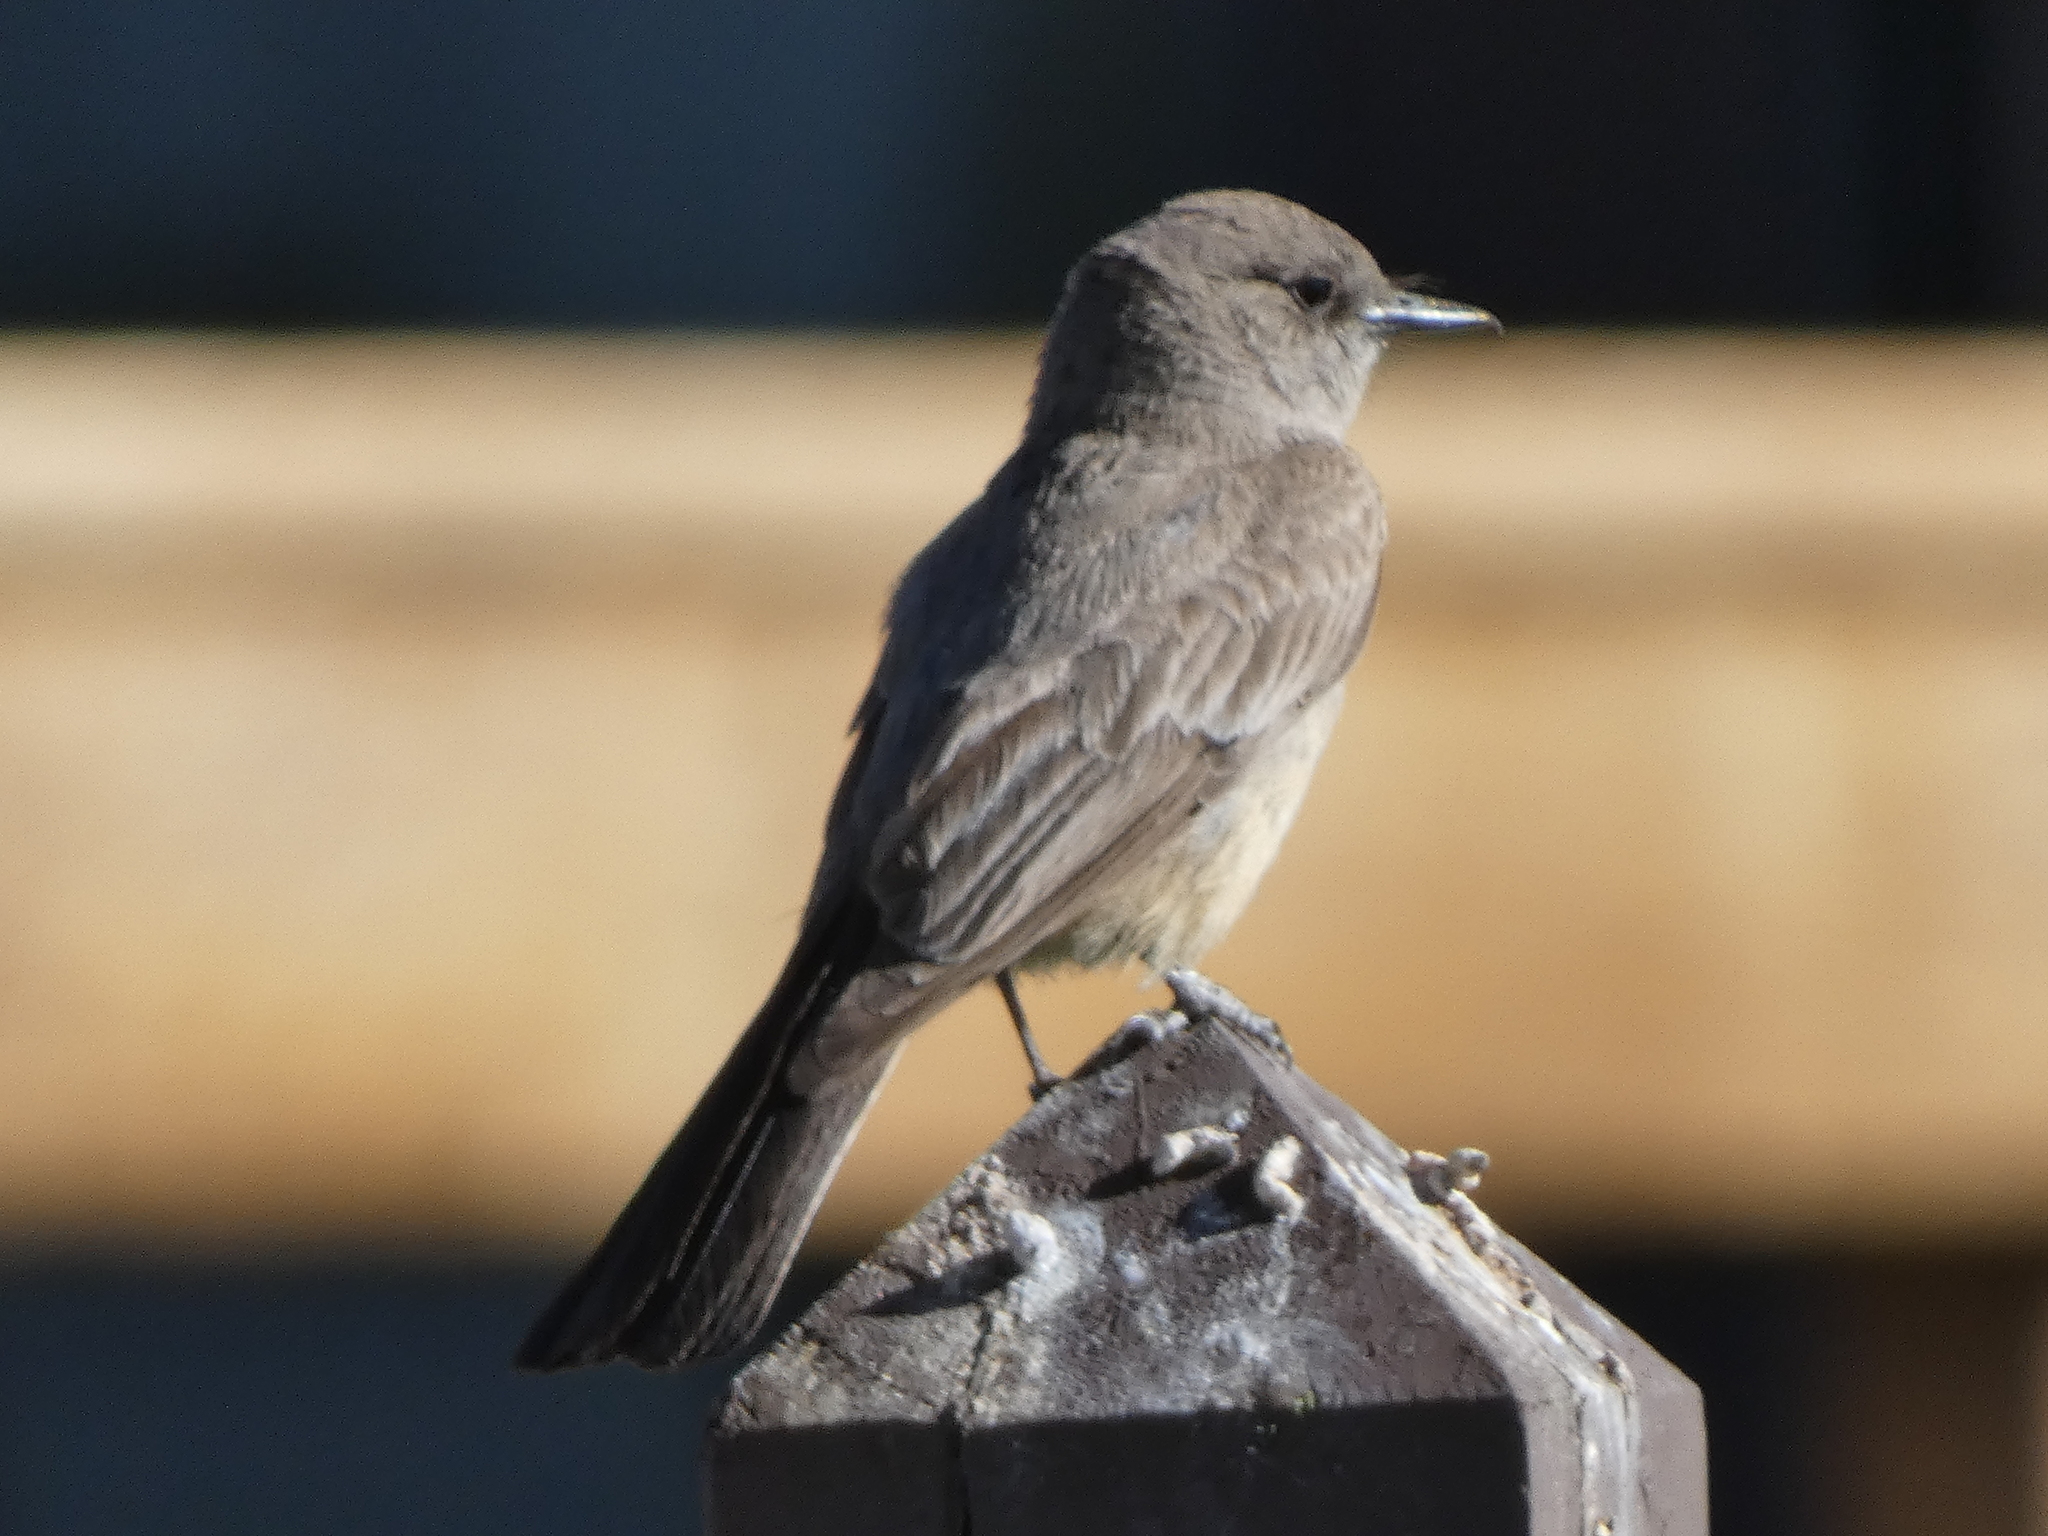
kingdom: Animalia
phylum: Chordata
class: Aves
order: Passeriformes
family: Tyrannidae
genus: Sayornis
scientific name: Sayornis saya
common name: Say's phoebe
